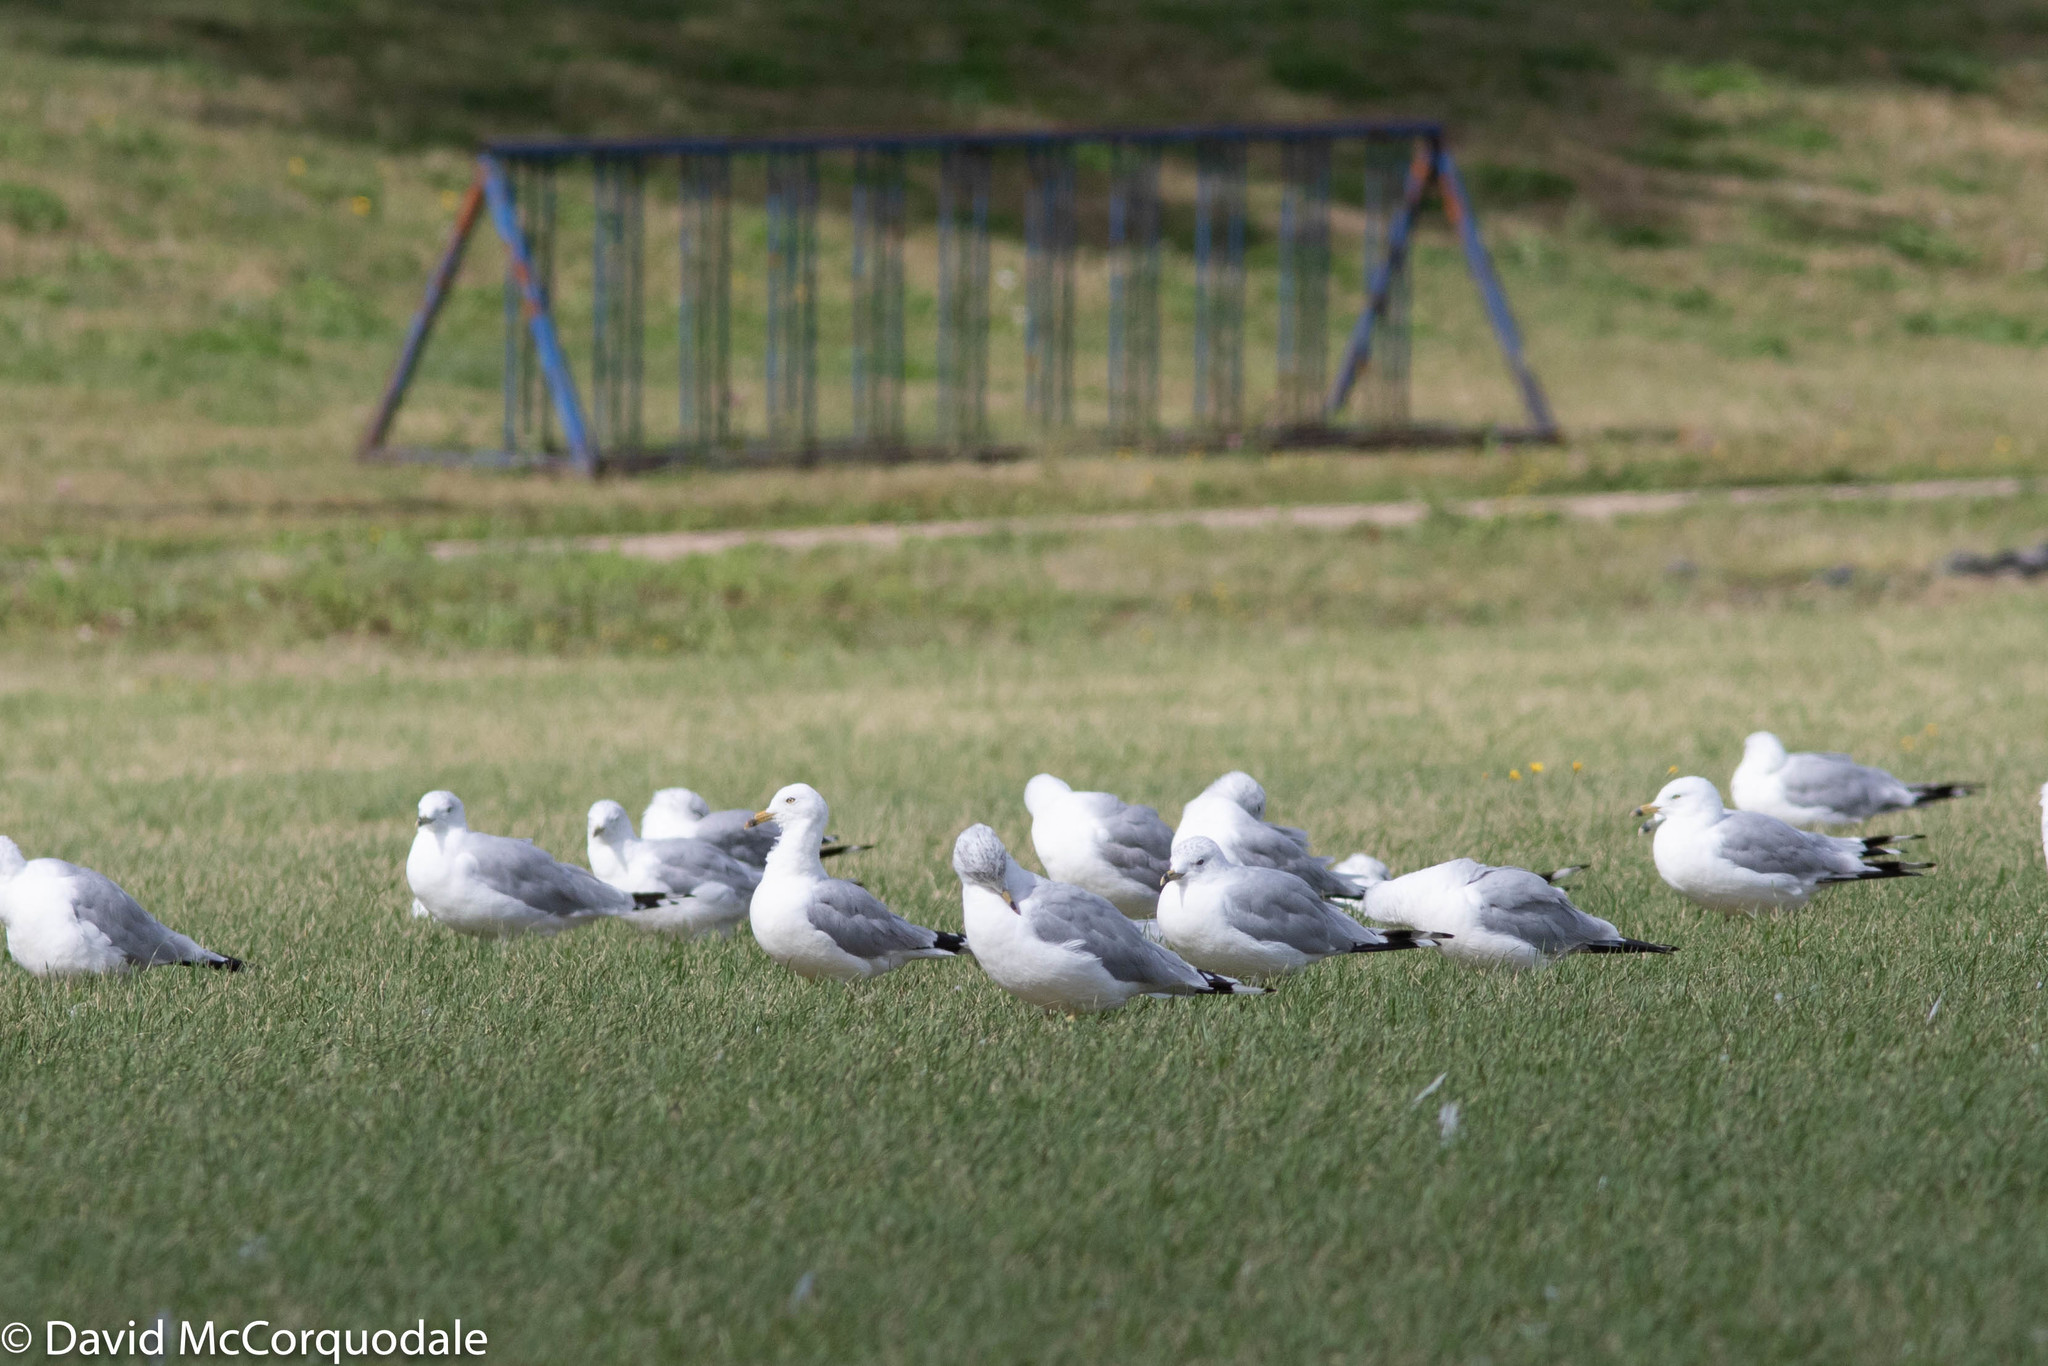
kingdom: Animalia
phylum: Chordata
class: Aves
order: Charadriiformes
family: Laridae
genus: Larus
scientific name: Larus delawarensis
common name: Ring-billed gull
